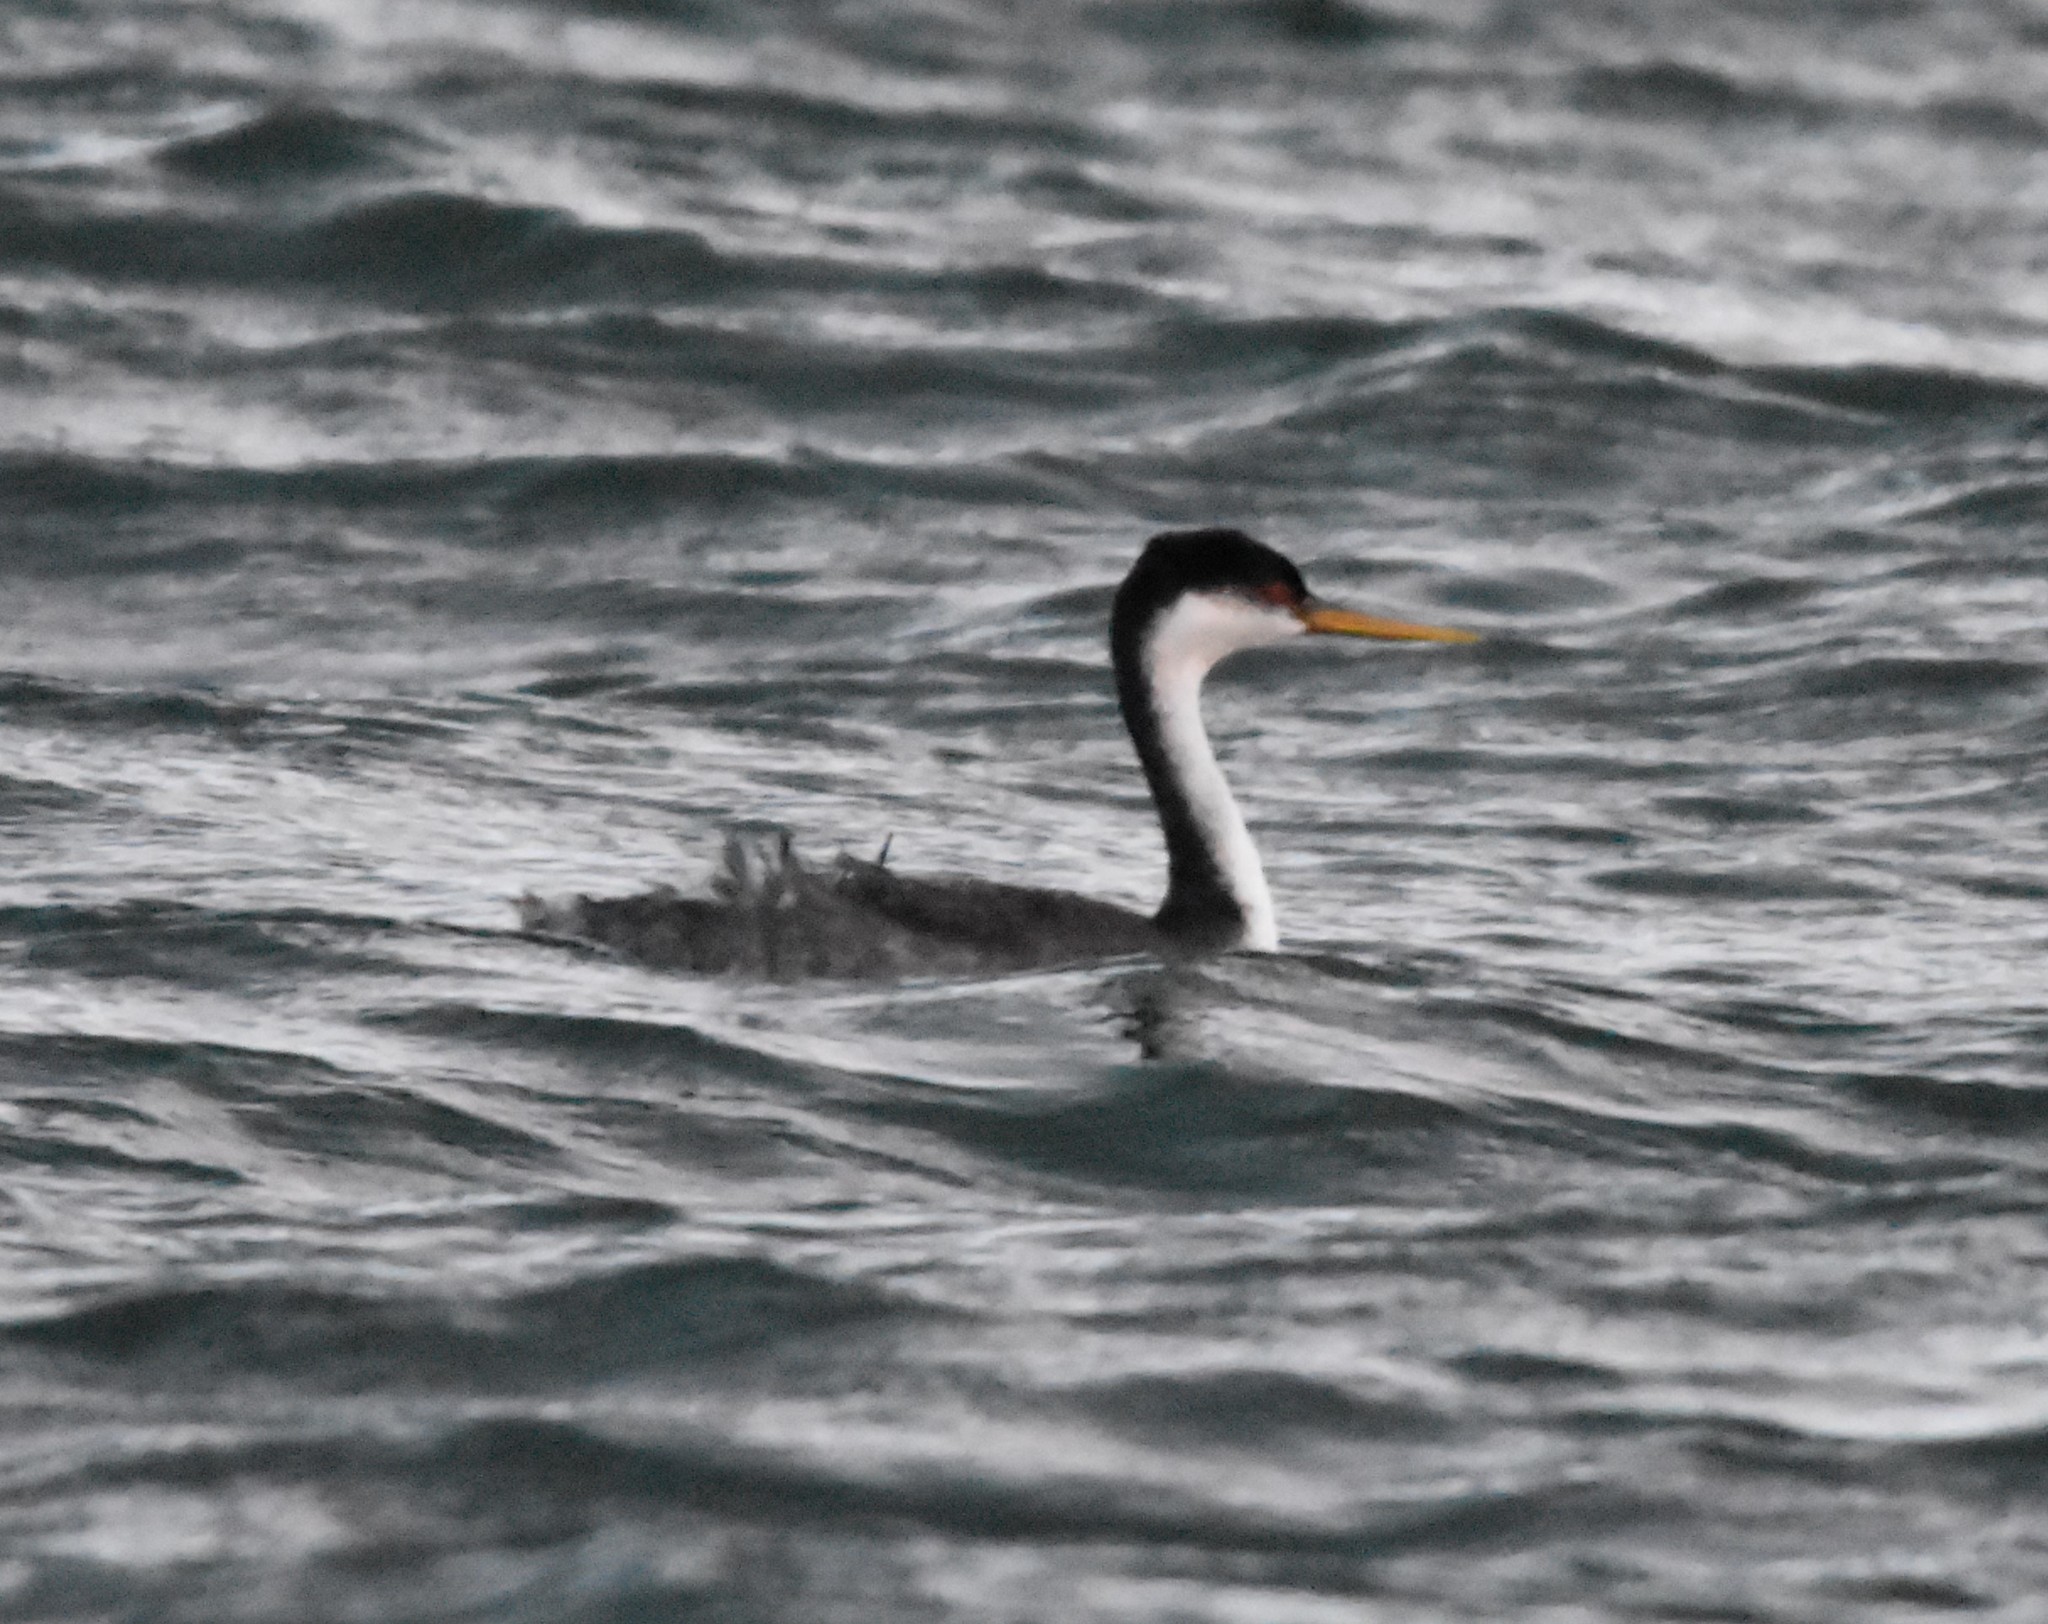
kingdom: Animalia
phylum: Chordata
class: Aves
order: Podicipediformes
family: Podicipedidae
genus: Aechmophorus
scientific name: Aechmophorus occidentalis
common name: Western grebe
